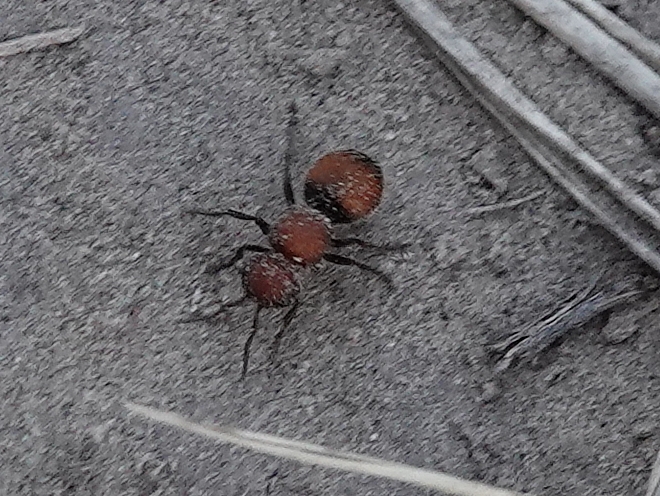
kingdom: Animalia
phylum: Arthropoda
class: Insecta
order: Hymenoptera
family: Mutillidae
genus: Pseudomethoca
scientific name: Pseudomethoca
